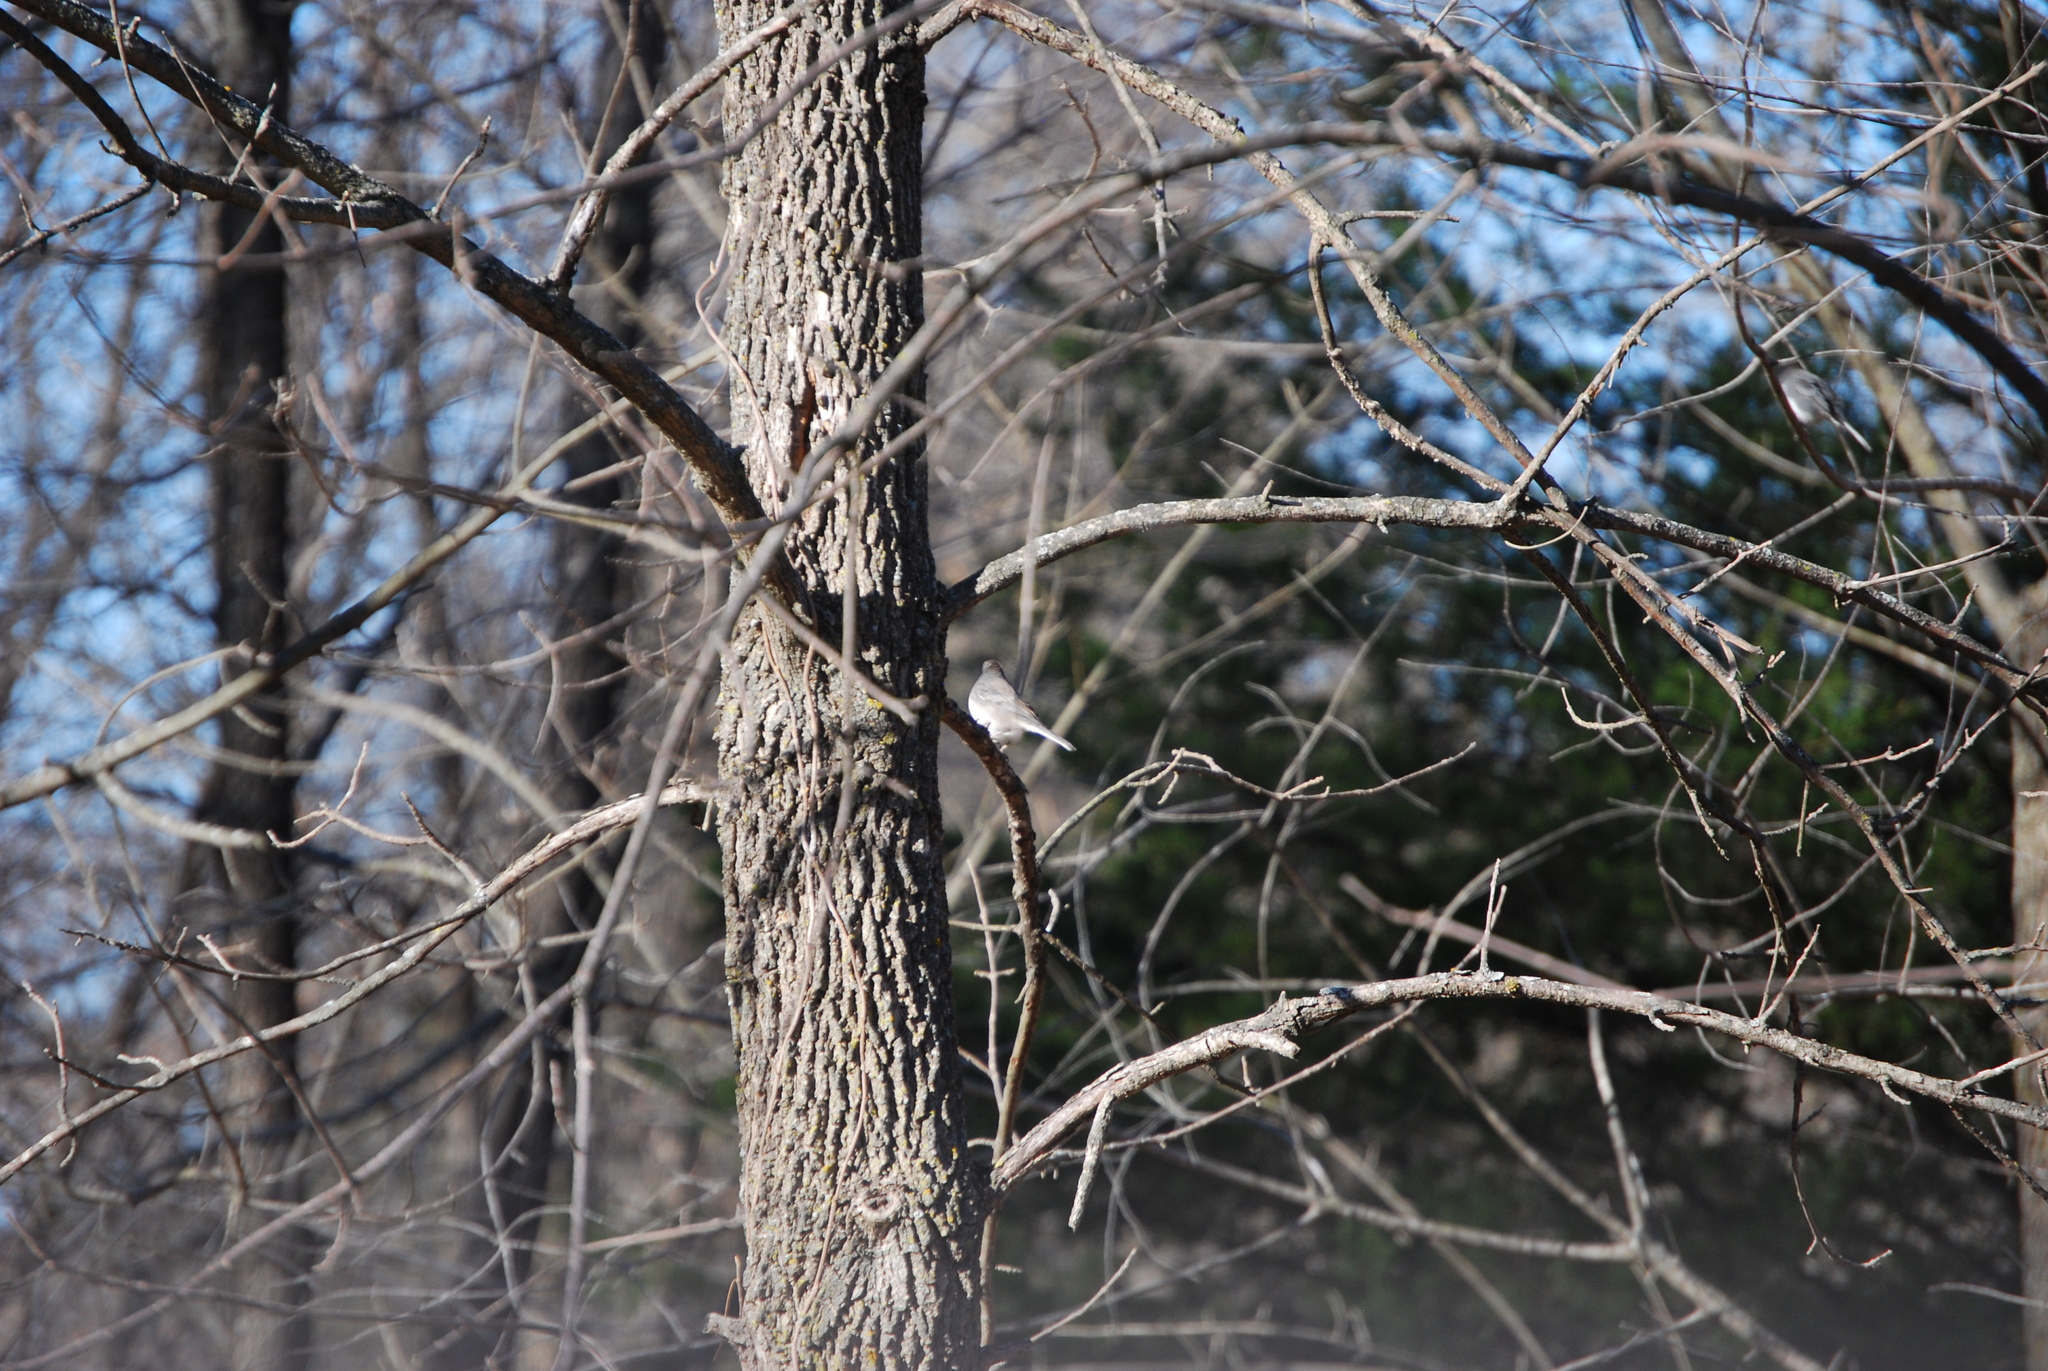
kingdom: Animalia
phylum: Chordata
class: Aves
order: Passeriformes
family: Passerellidae
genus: Junco
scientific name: Junco hyemalis
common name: Dark-eyed junco
